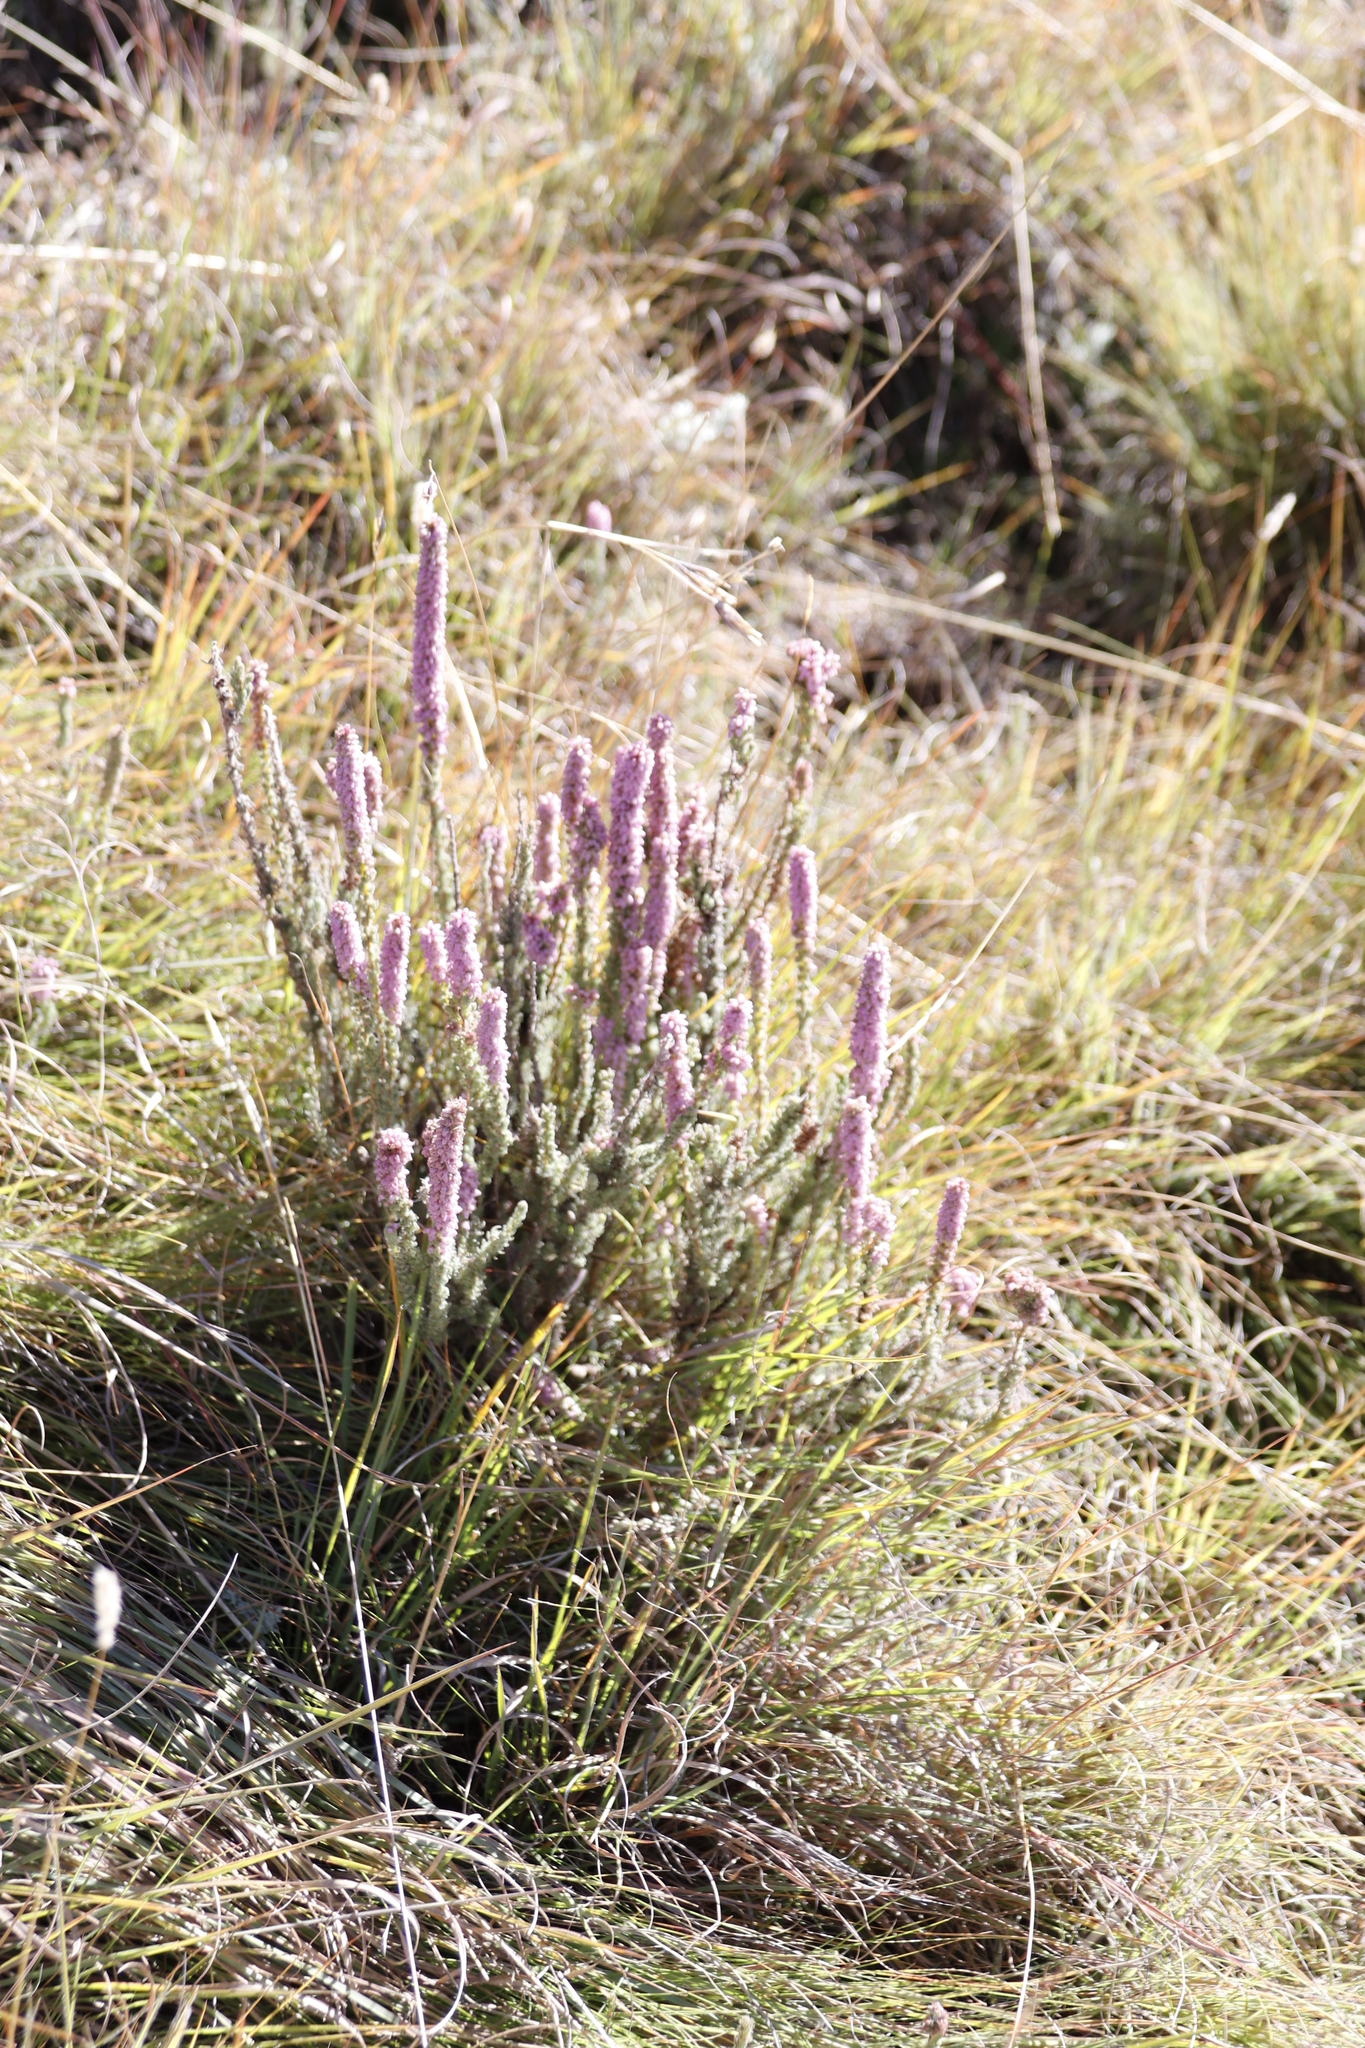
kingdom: Plantae
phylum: Tracheophyta
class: Magnoliopsida
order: Ericales
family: Ericaceae
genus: Erica
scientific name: Erica alopecurus
